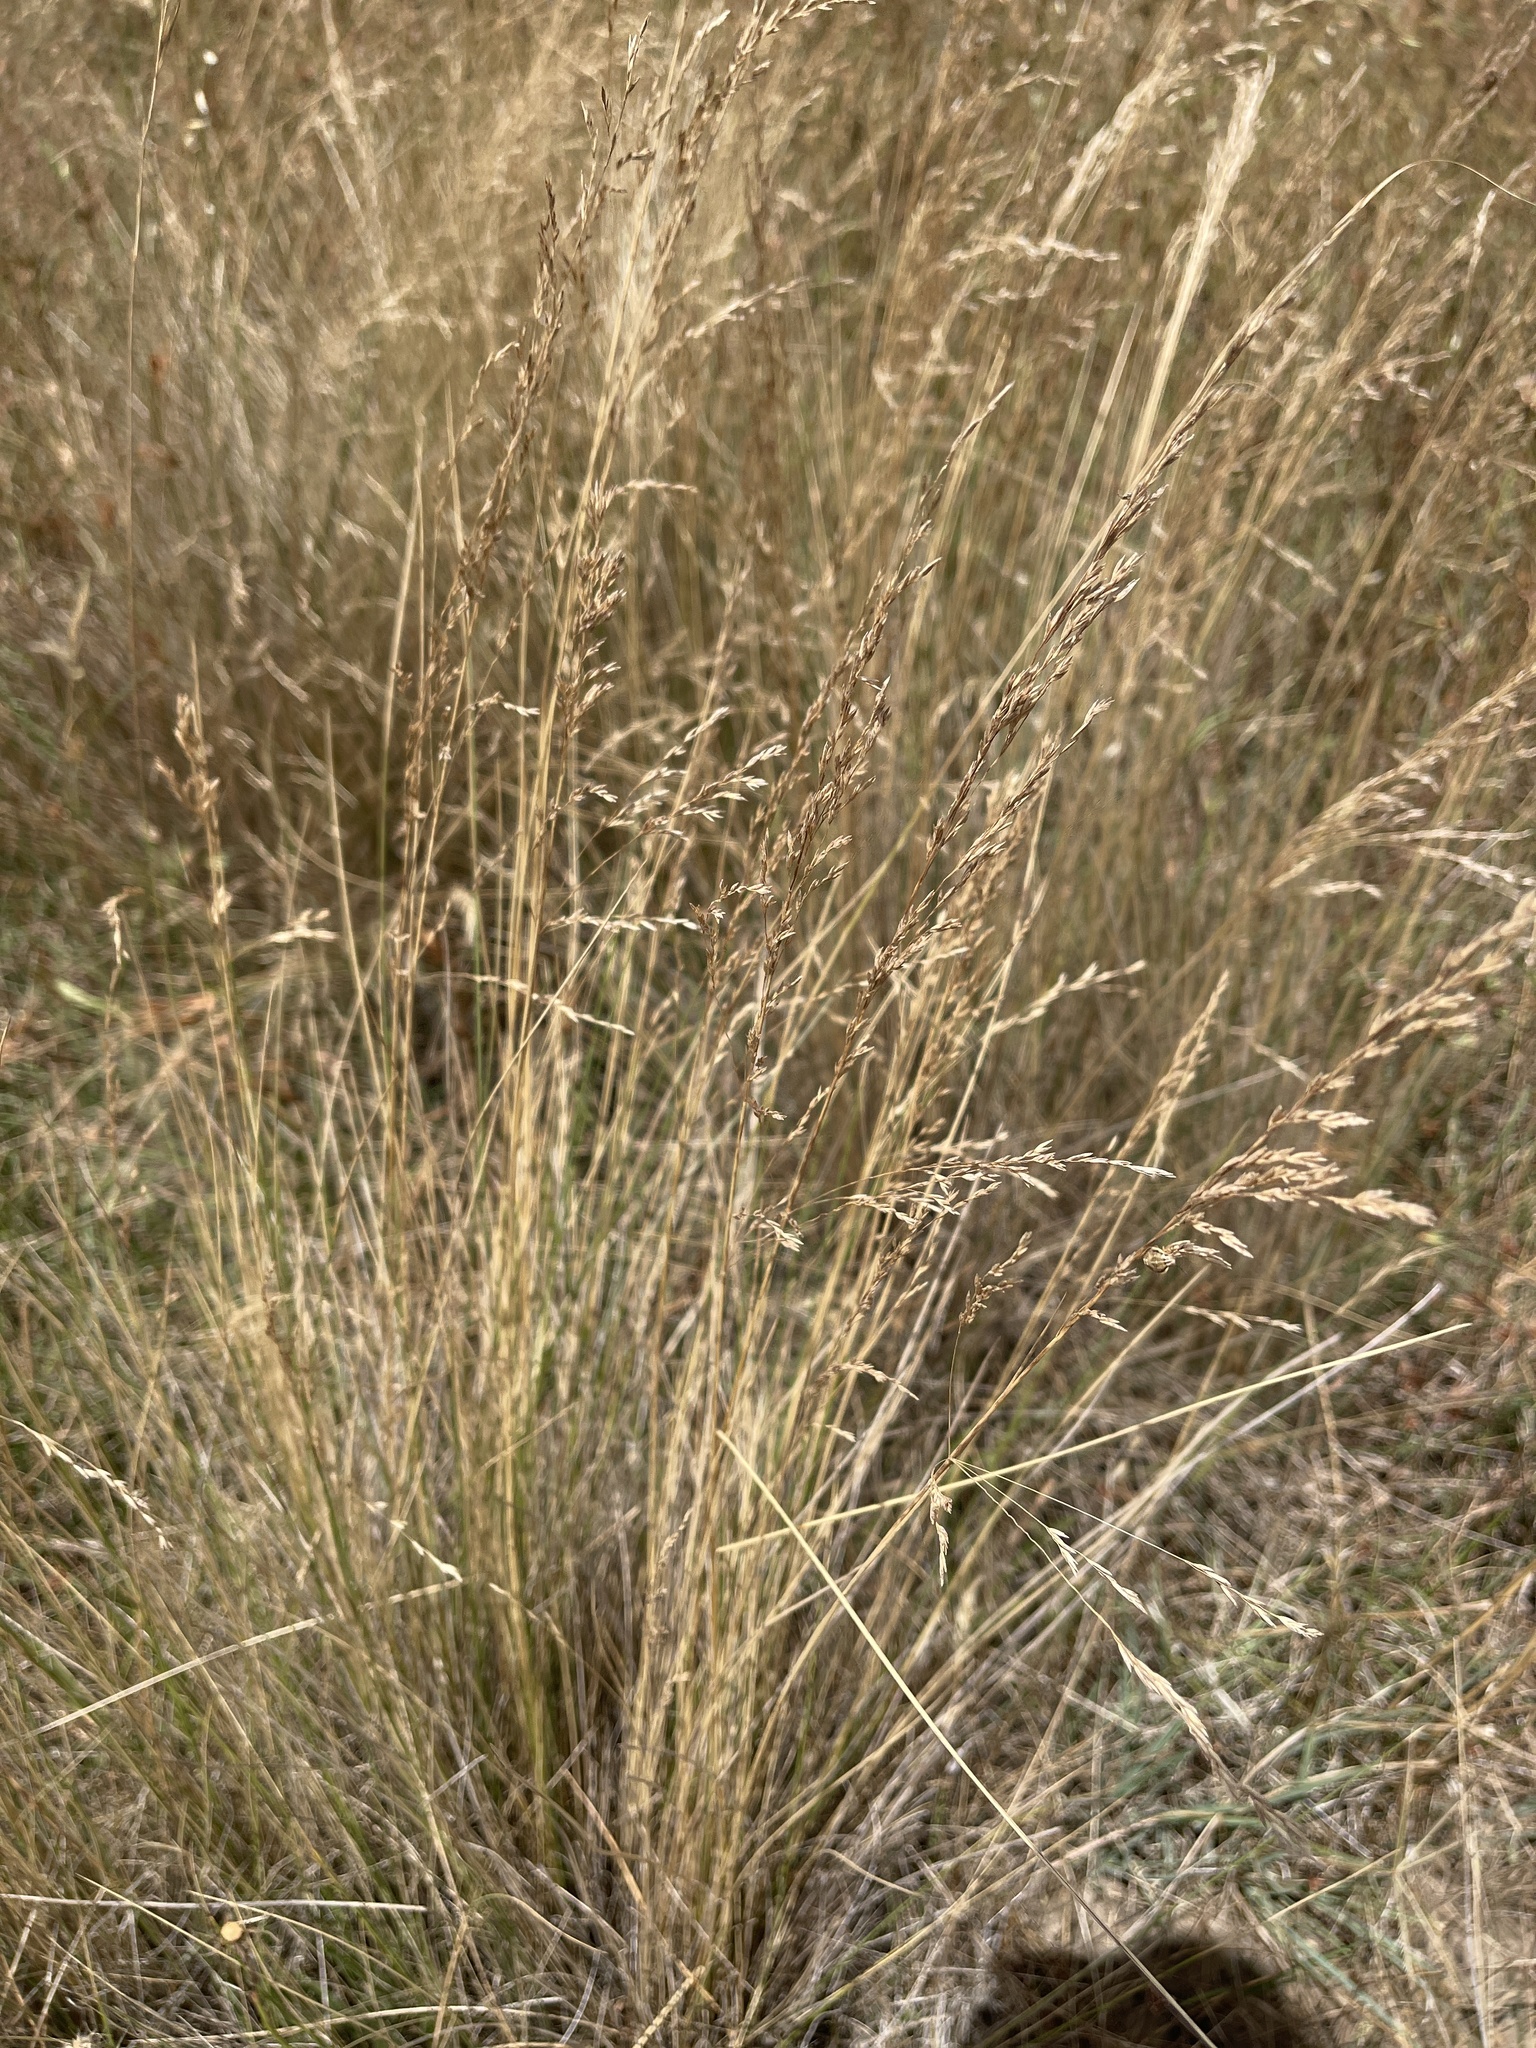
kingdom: Plantae
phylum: Tracheophyta
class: Liliopsida
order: Poales
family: Poaceae
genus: Poa
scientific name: Poa labillardierei
